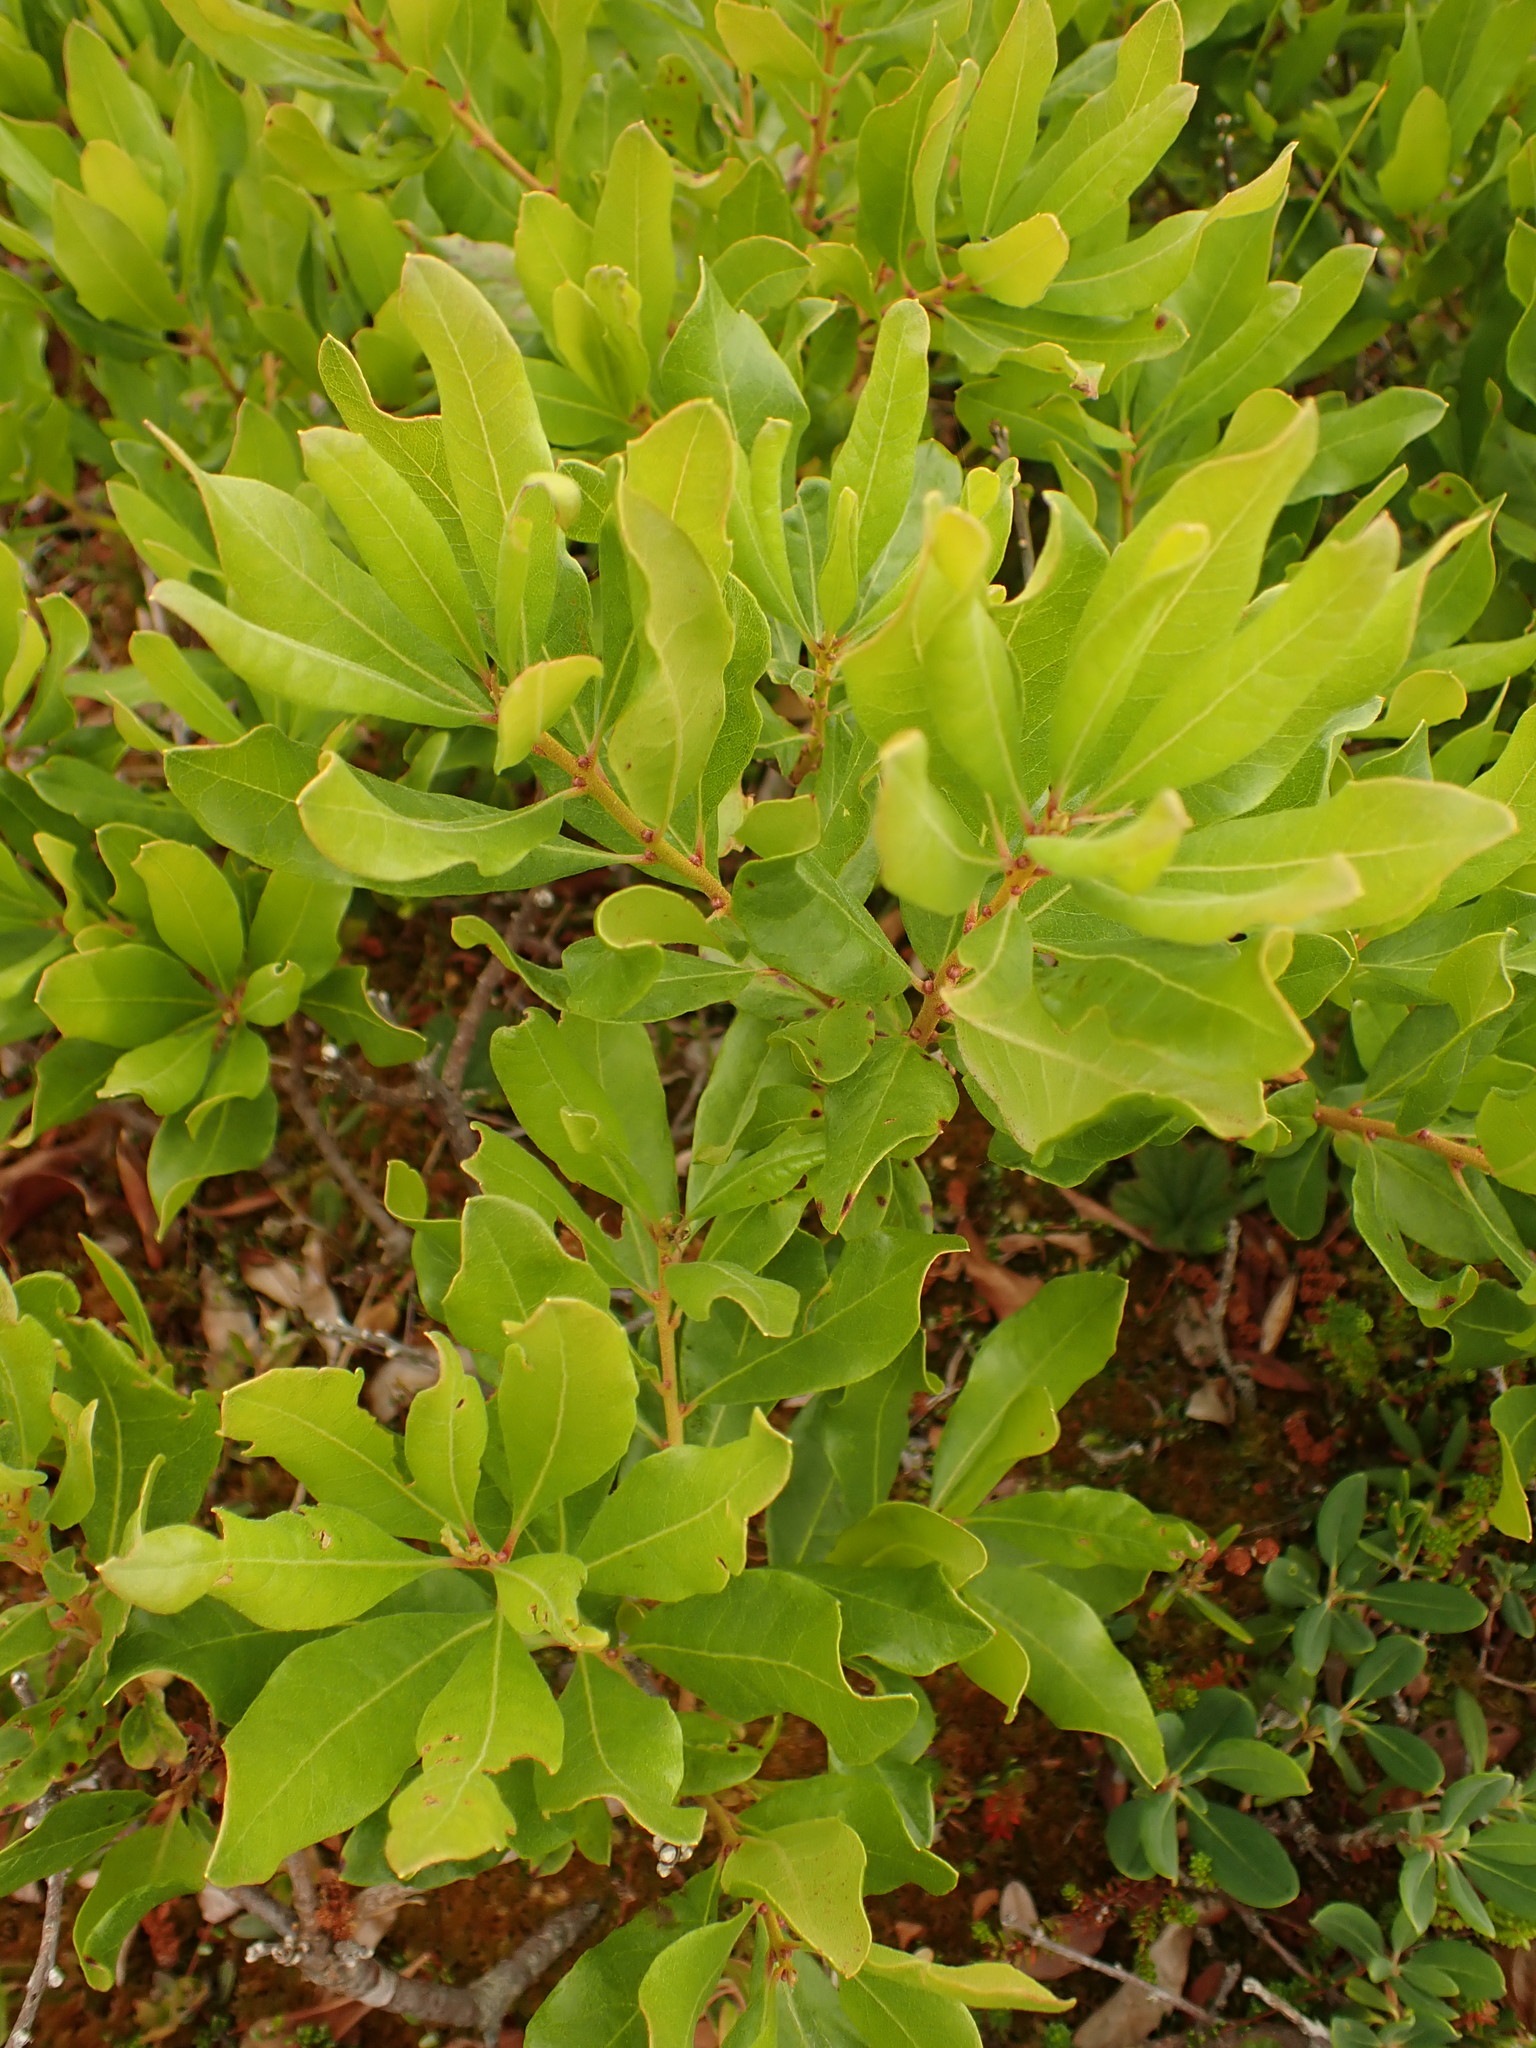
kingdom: Plantae
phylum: Tracheophyta
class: Magnoliopsida
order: Fagales
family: Myricaceae
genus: Morella
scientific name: Morella pensylvanica
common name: Northern bayberry
